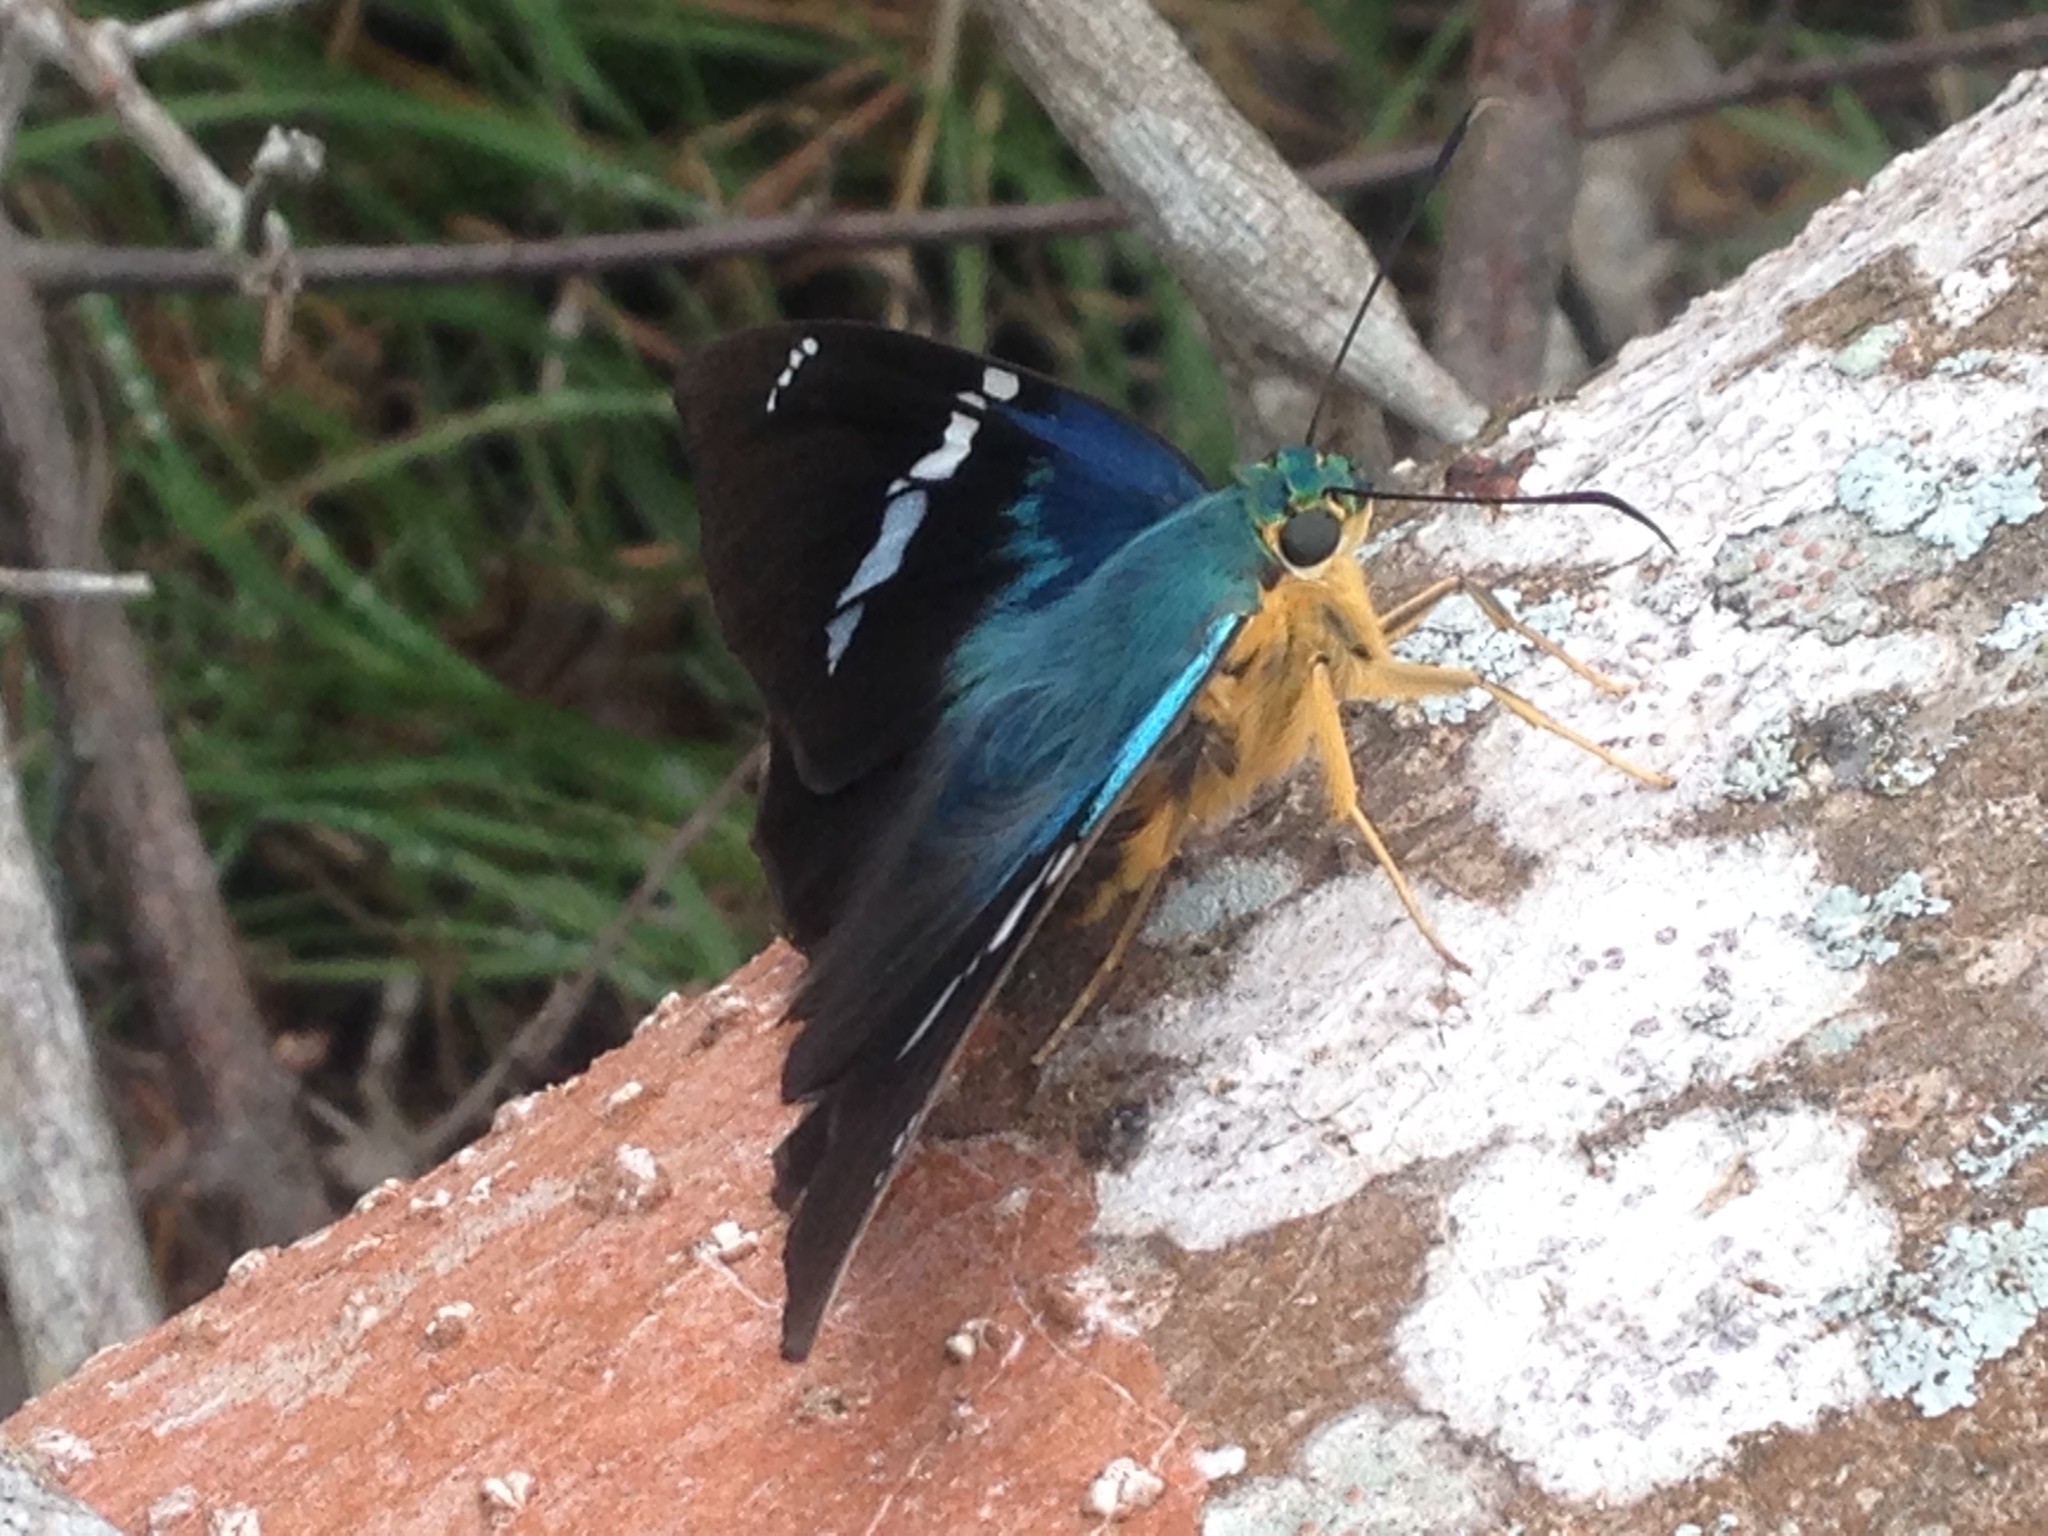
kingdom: Animalia
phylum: Arthropoda
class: Insecta
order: Lepidoptera
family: Hesperiidae
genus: Astraptes
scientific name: Astraptes fulgerator
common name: Two-barred flasher
